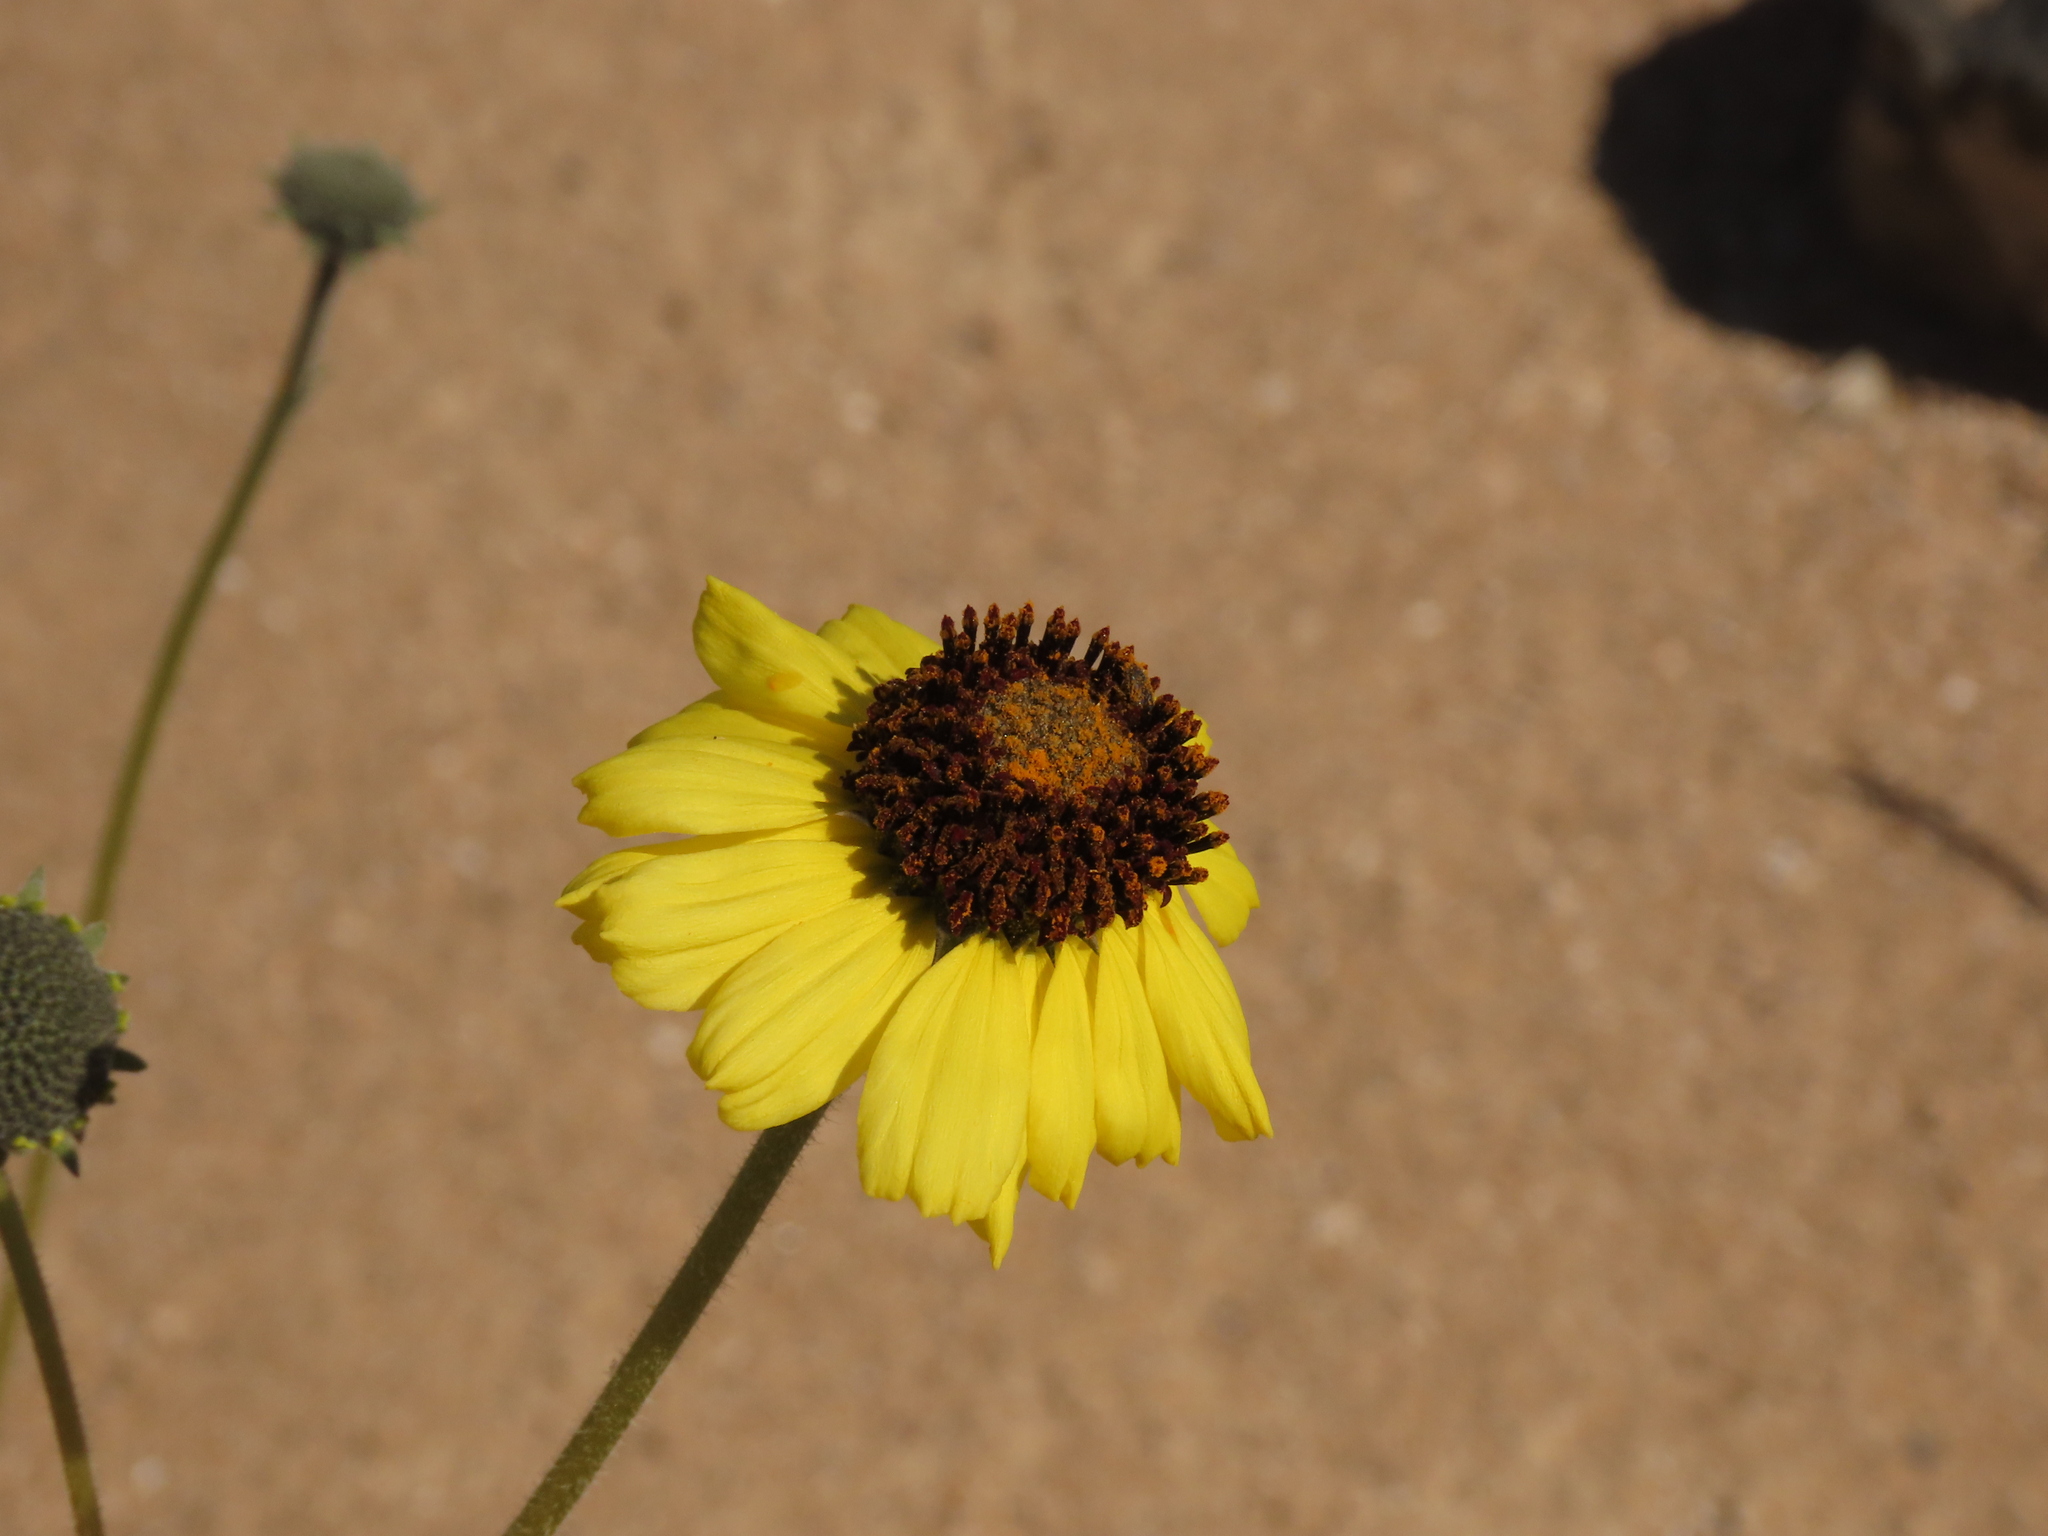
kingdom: Plantae
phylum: Tracheophyta
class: Magnoliopsida
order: Asterales
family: Asteraceae
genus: Encelia
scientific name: Encelia canescens
